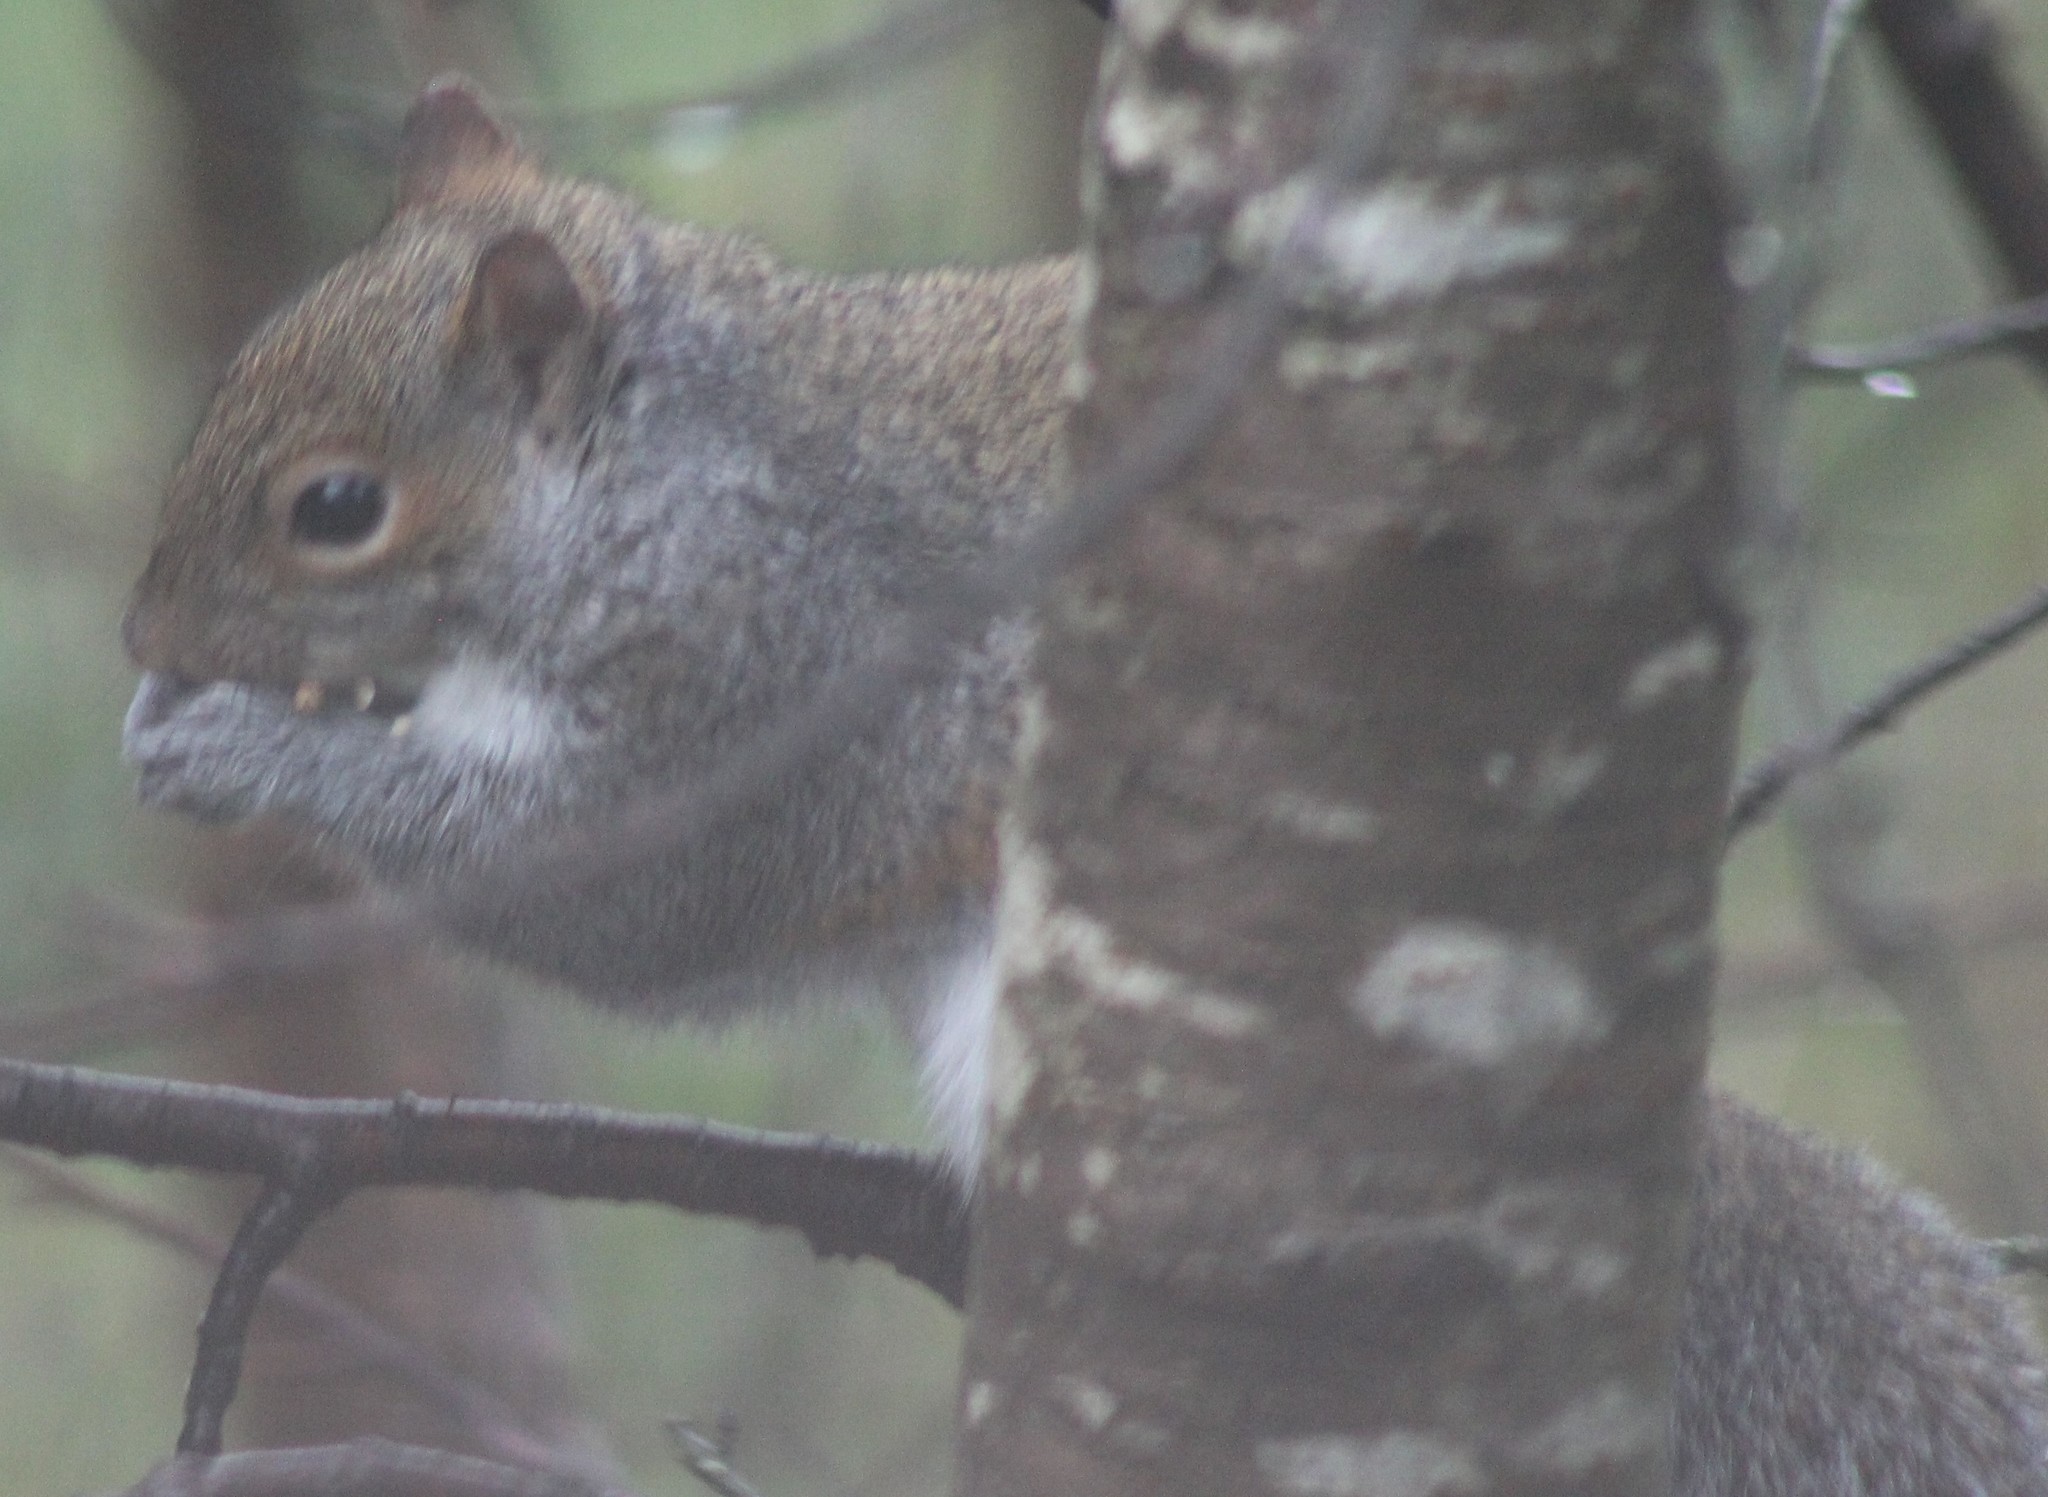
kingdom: Animalia
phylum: Chordata
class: Mammalia
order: Rodentia
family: Sciuridae
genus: Sciurus
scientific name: Sciurus carolinensis
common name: Eastern gray squirrel
